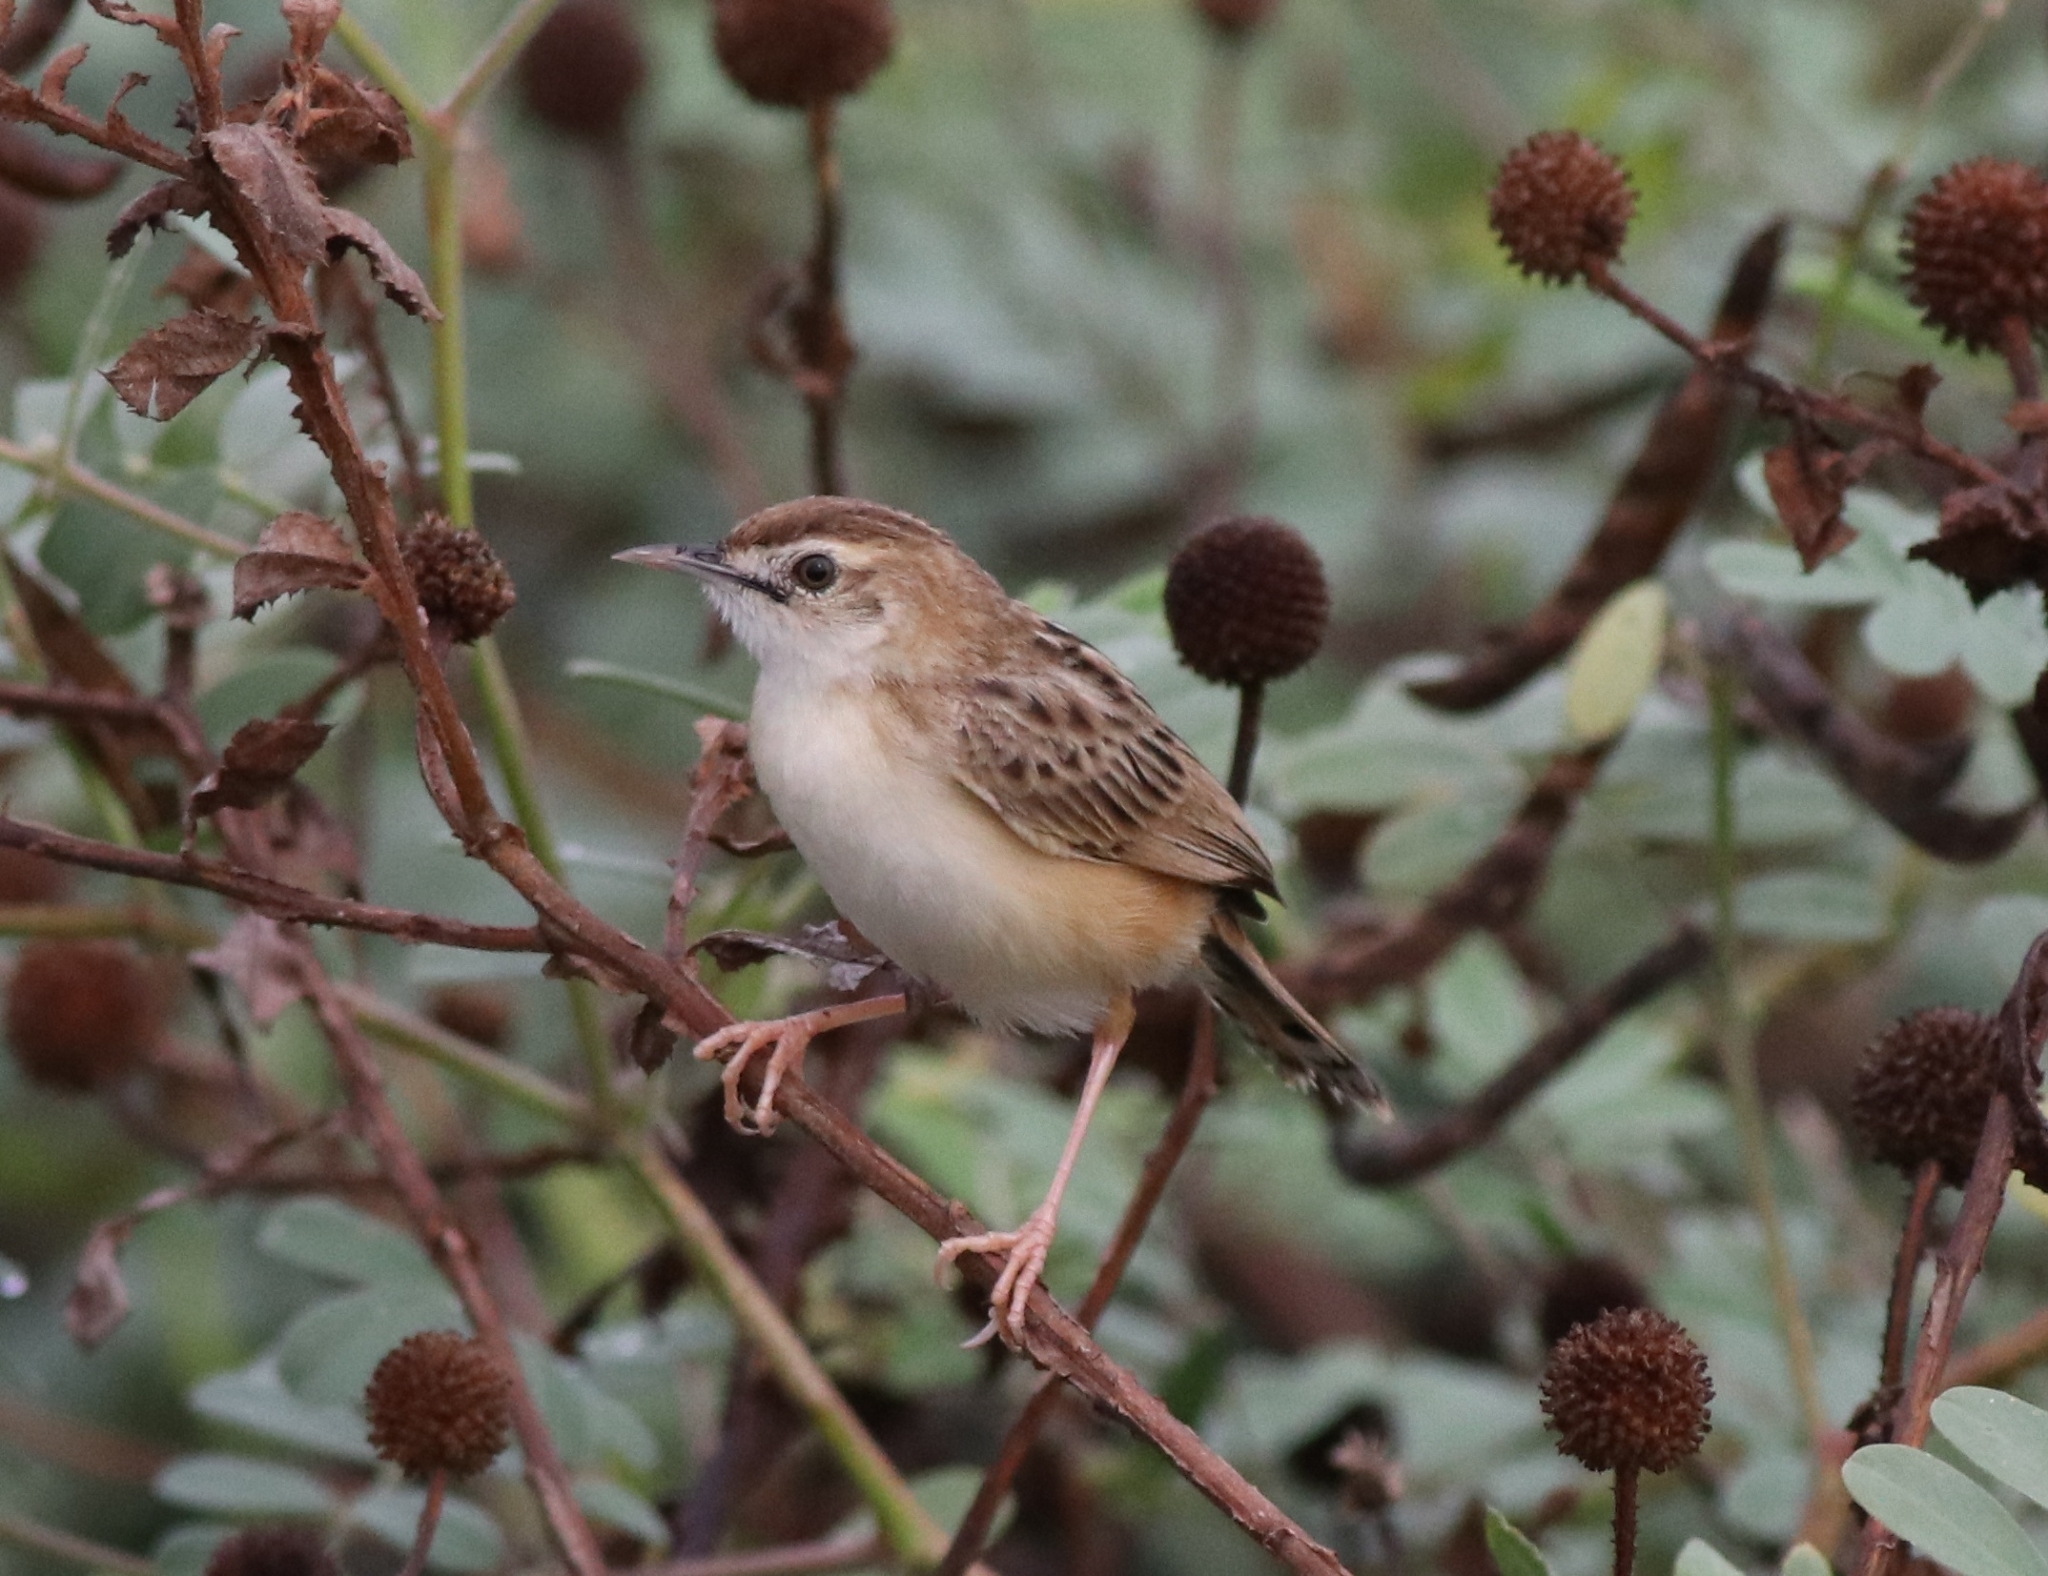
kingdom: Animalia
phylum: Chordata
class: Aves
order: Passeriformes
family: Cisticolidae
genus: Cisticola
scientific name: Cisticola juncidis
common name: Zitting cisticola
